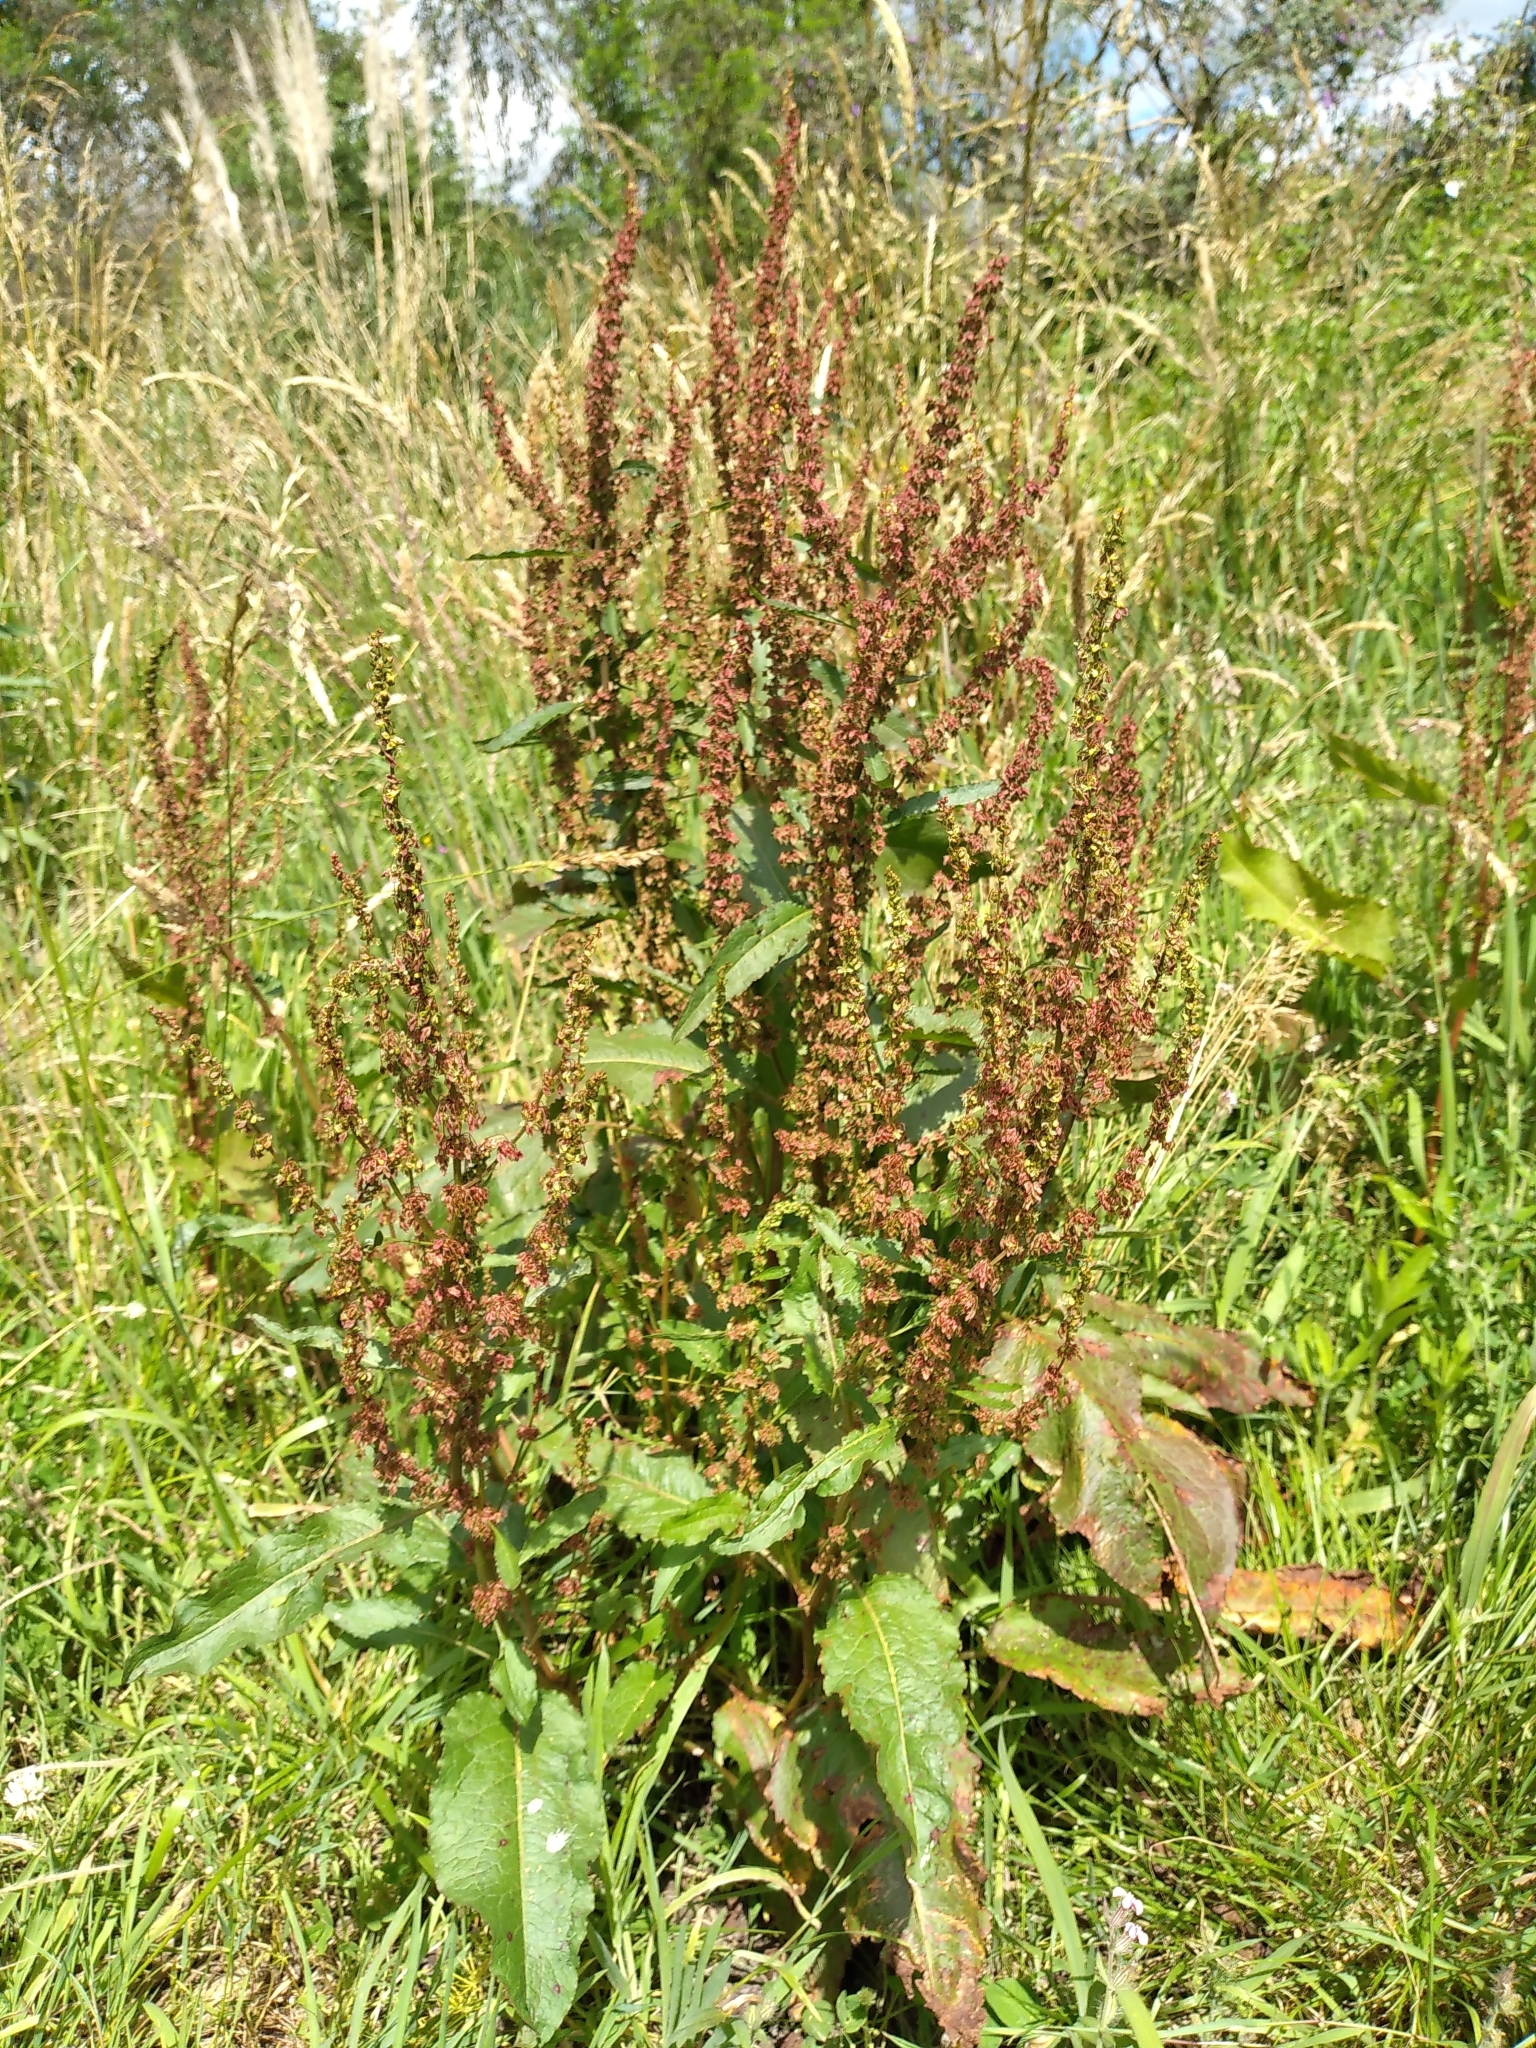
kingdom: Plantae
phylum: Tracheophyta
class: Magnoliopsida
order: Caryophyllales
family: Polygonaceae
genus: Rumex
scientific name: Rumex obtusifolius
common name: Bitter dock
